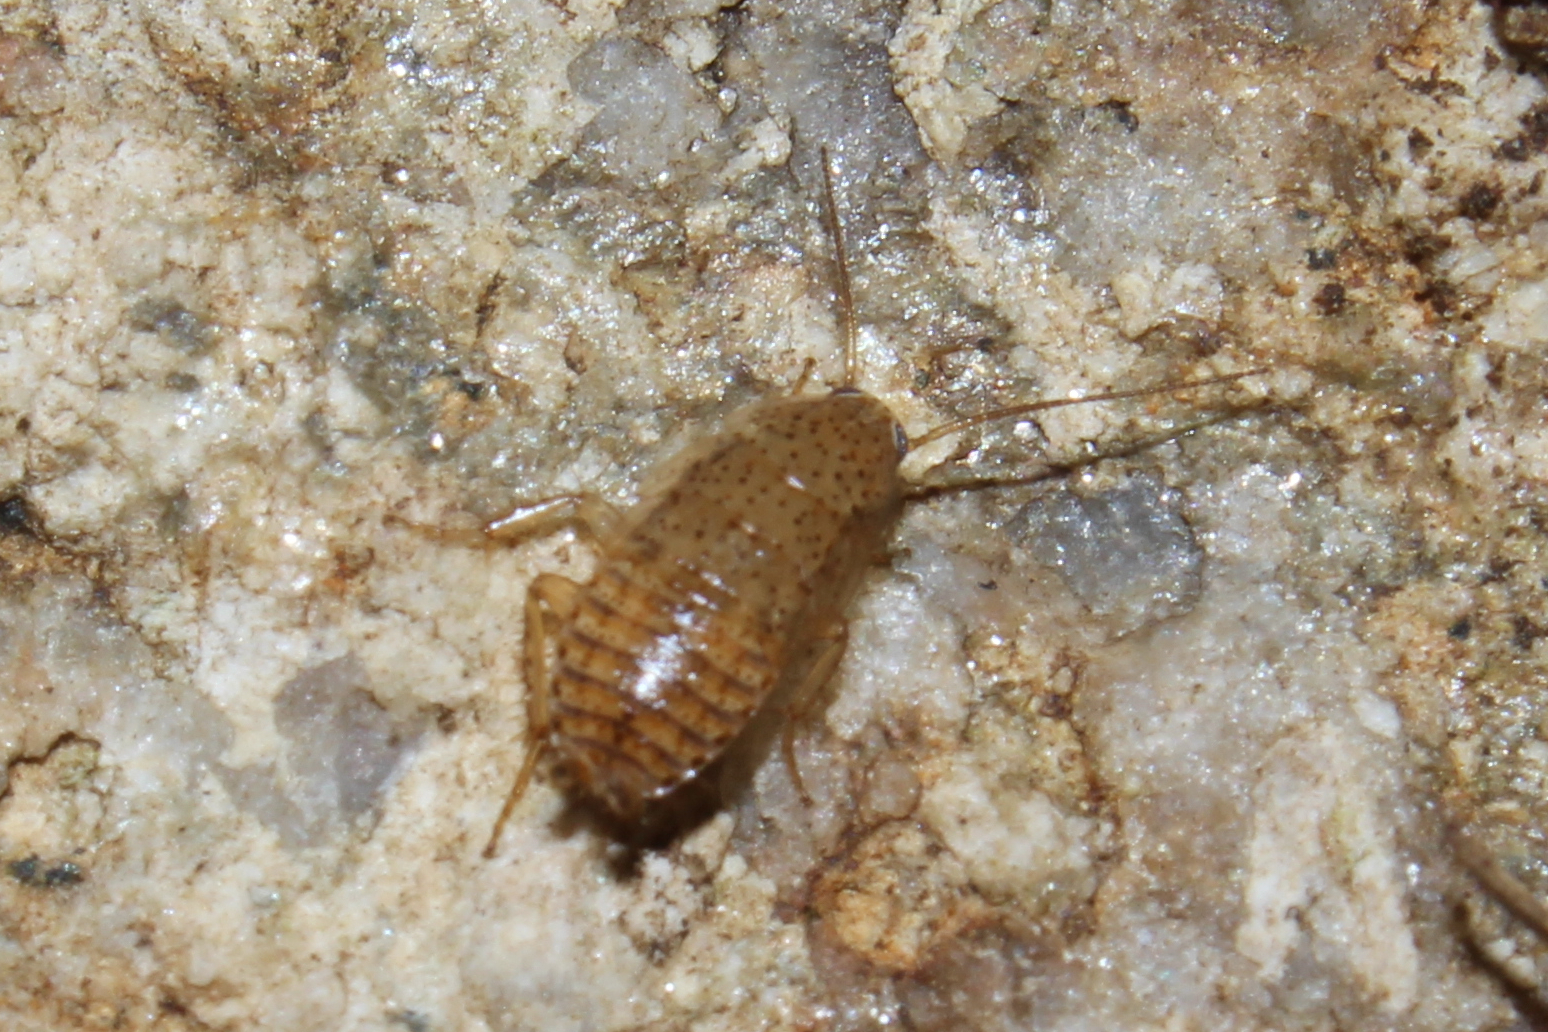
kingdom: Animalia
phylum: Arthropoda
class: Insecta
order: Blattodea
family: Ectobiidae
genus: Ectobius
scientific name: Ectobius pallidus
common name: Tawny cockroach
